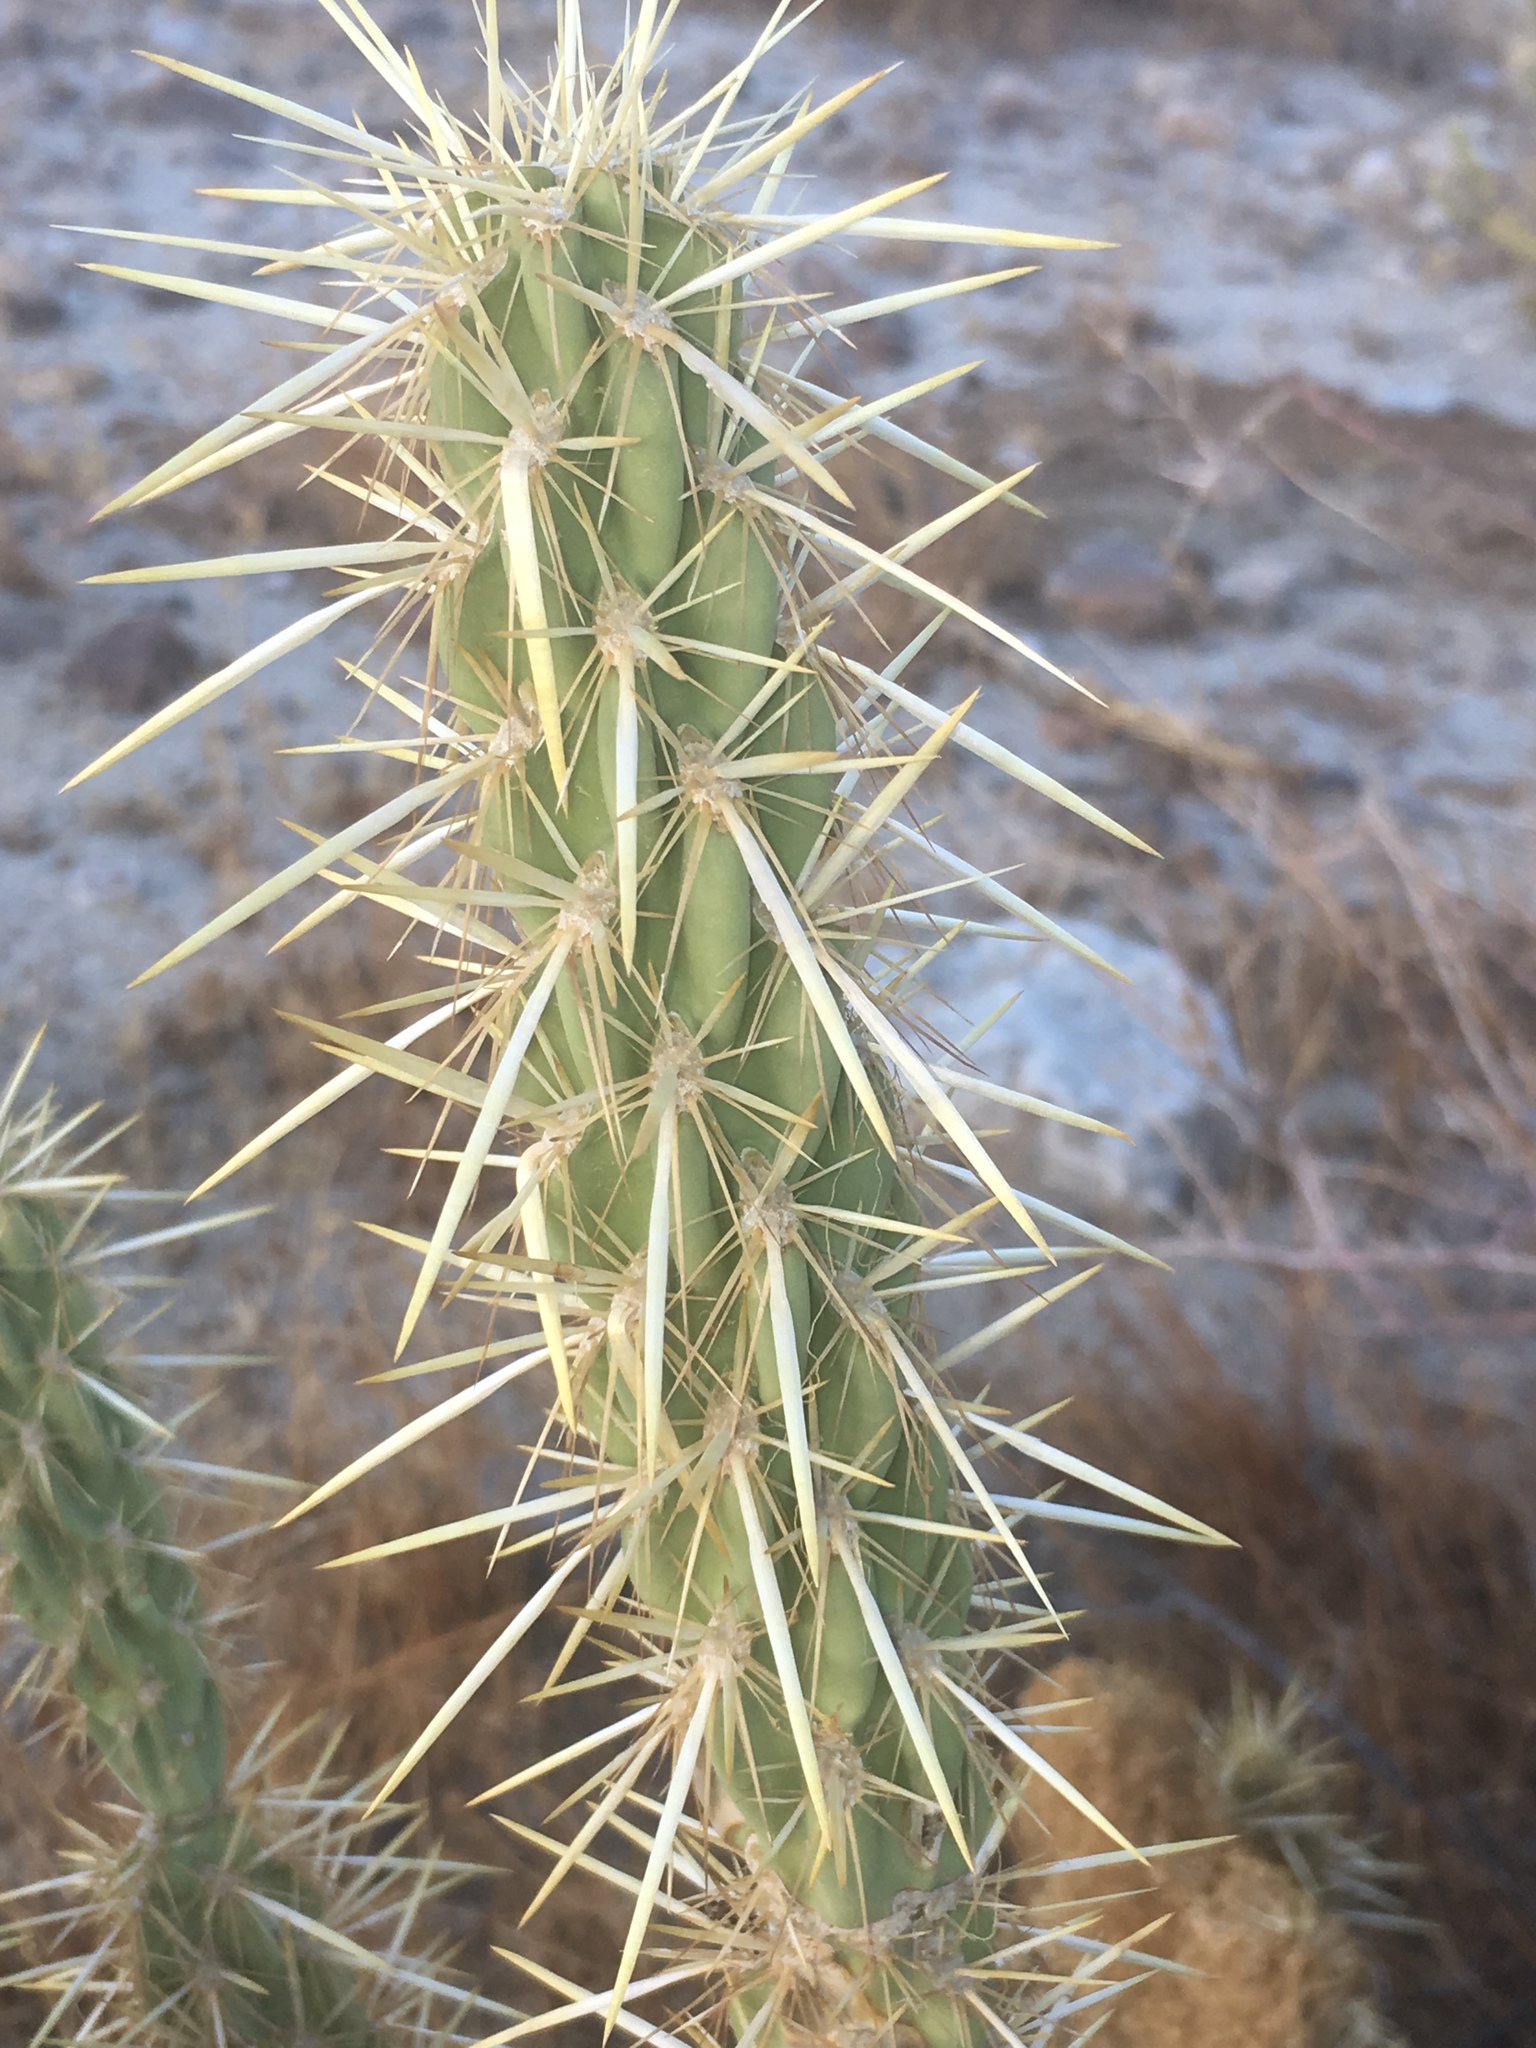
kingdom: Plantae
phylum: Tracheophyta
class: Magnoliopsida
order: Caryophyllales
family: Cactaceae
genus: Cylindropuntia
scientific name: Cylindropuntia ganderi
